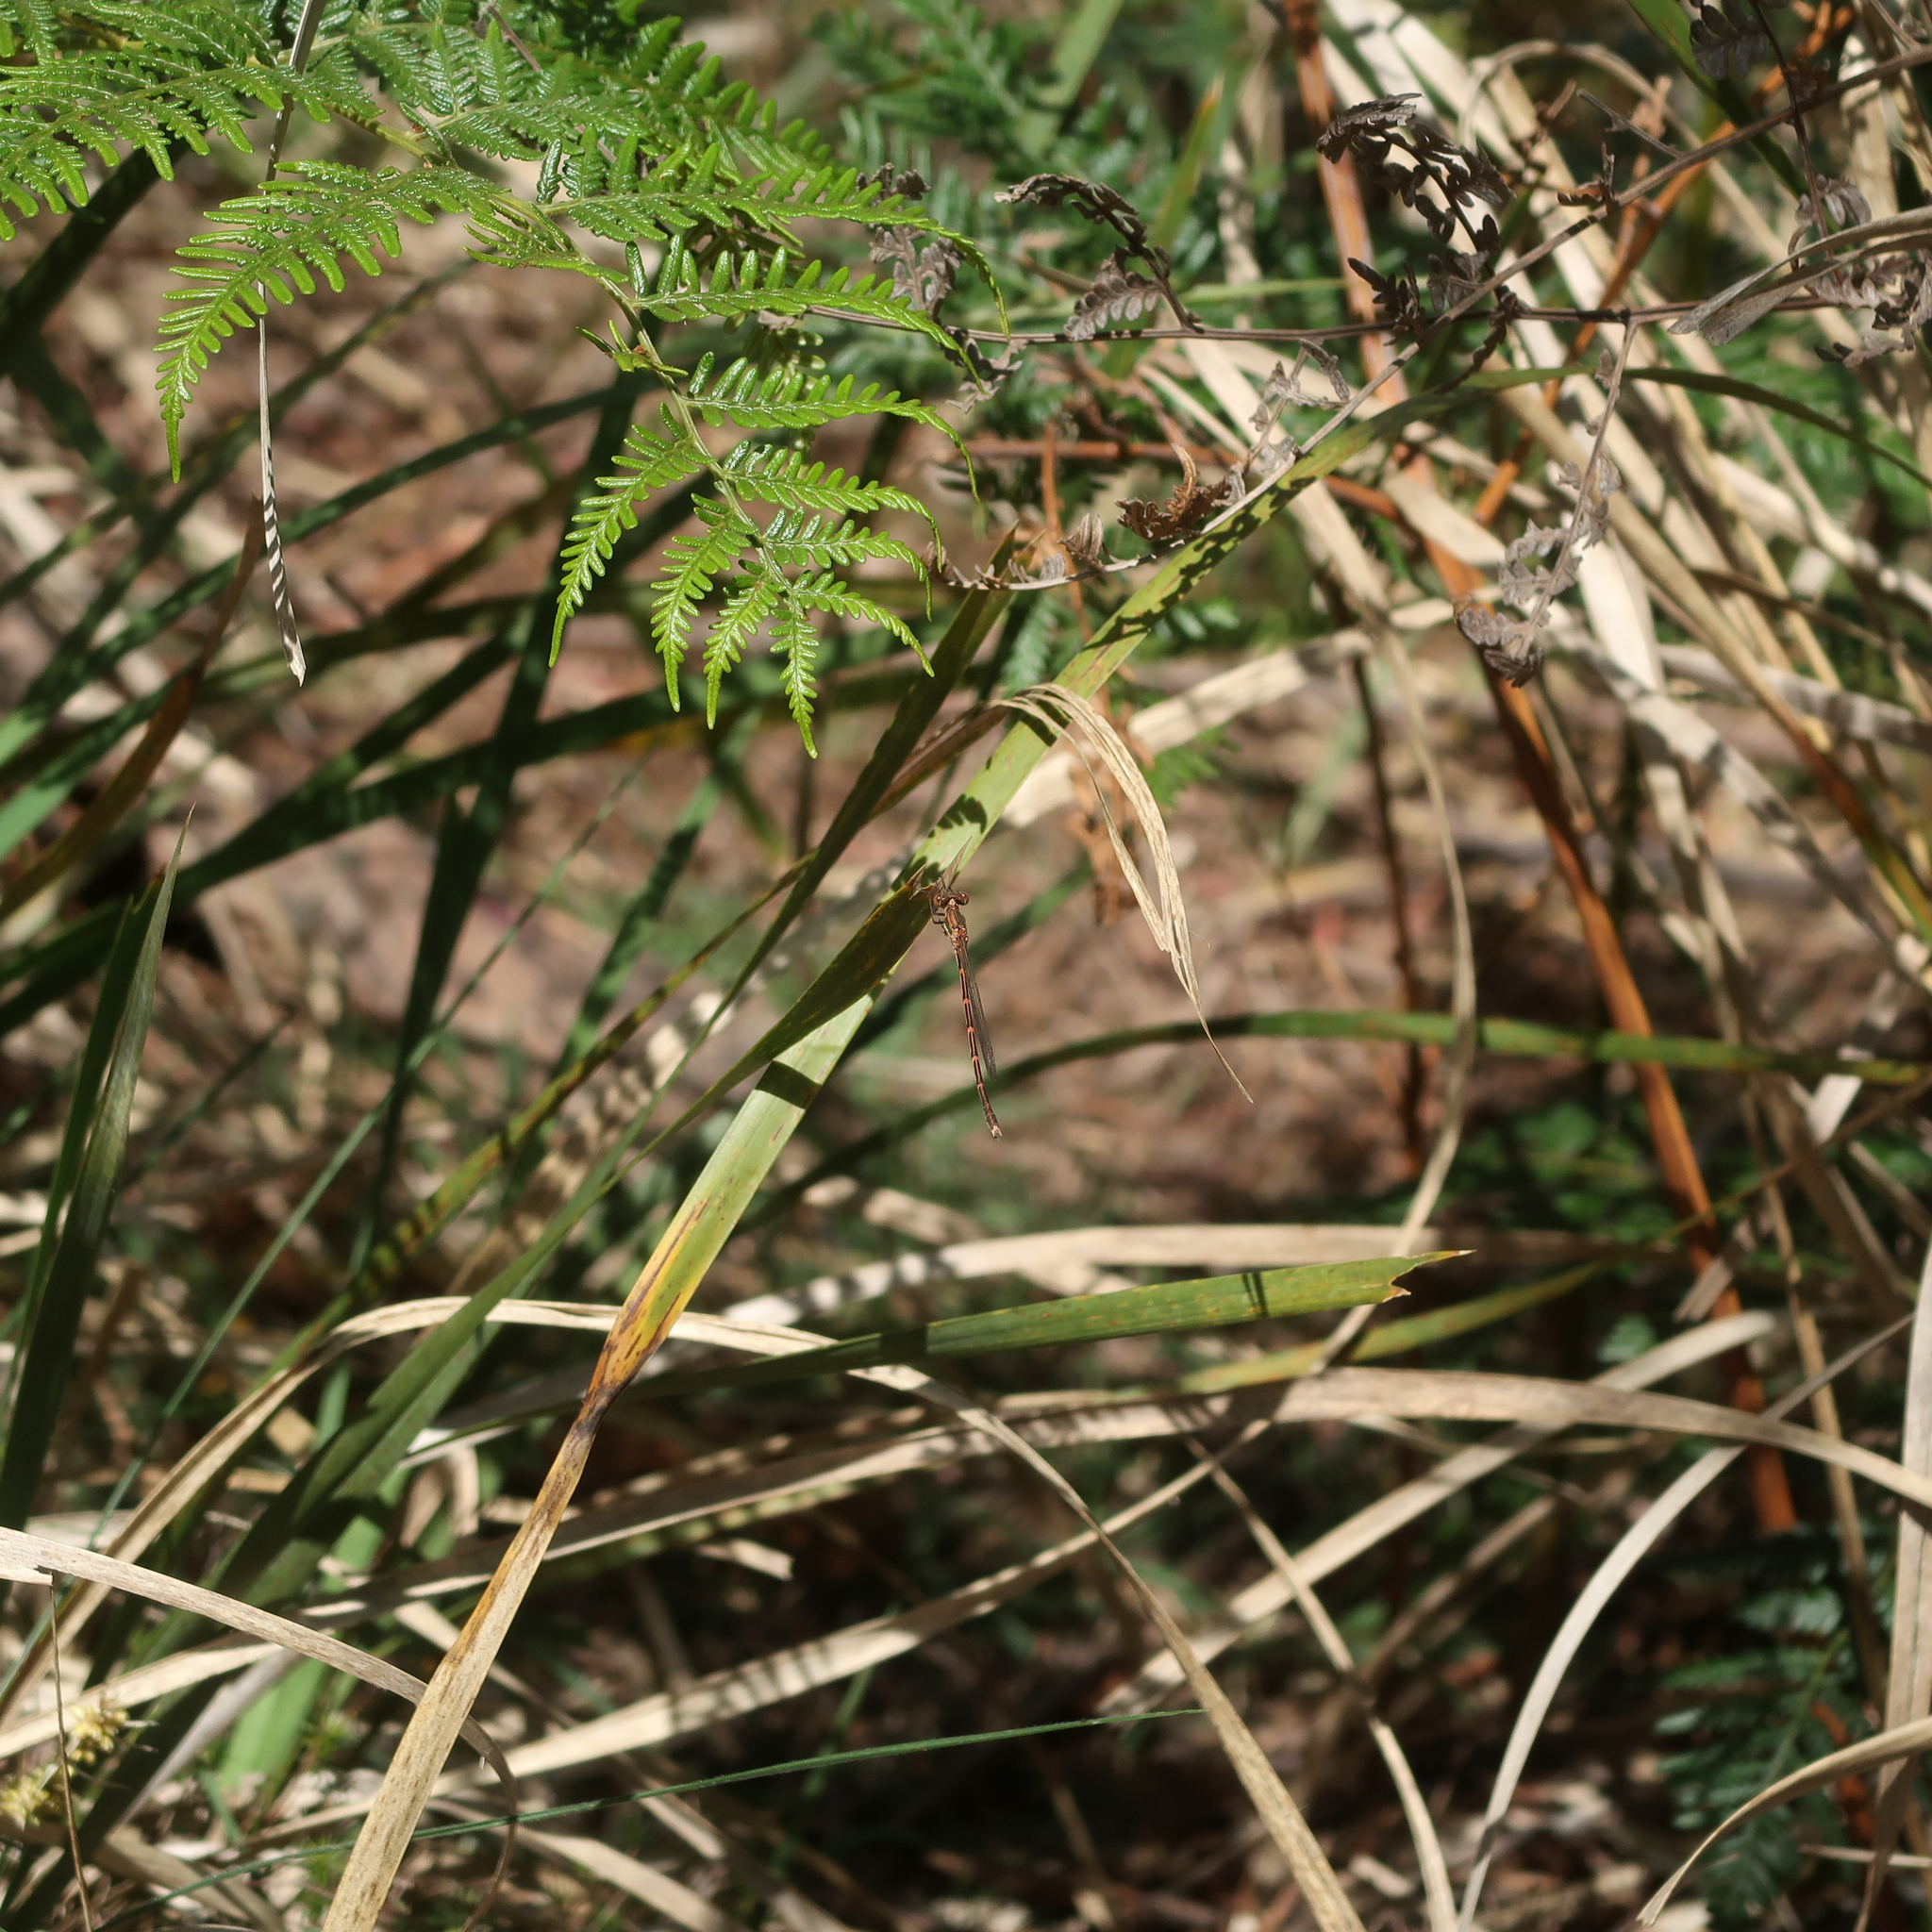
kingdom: Animalia
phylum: Arthropoda
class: Insecta
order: Odonata
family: Lestidae
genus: Austrolestes
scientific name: Austrolestes analis
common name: Slender ringtail
